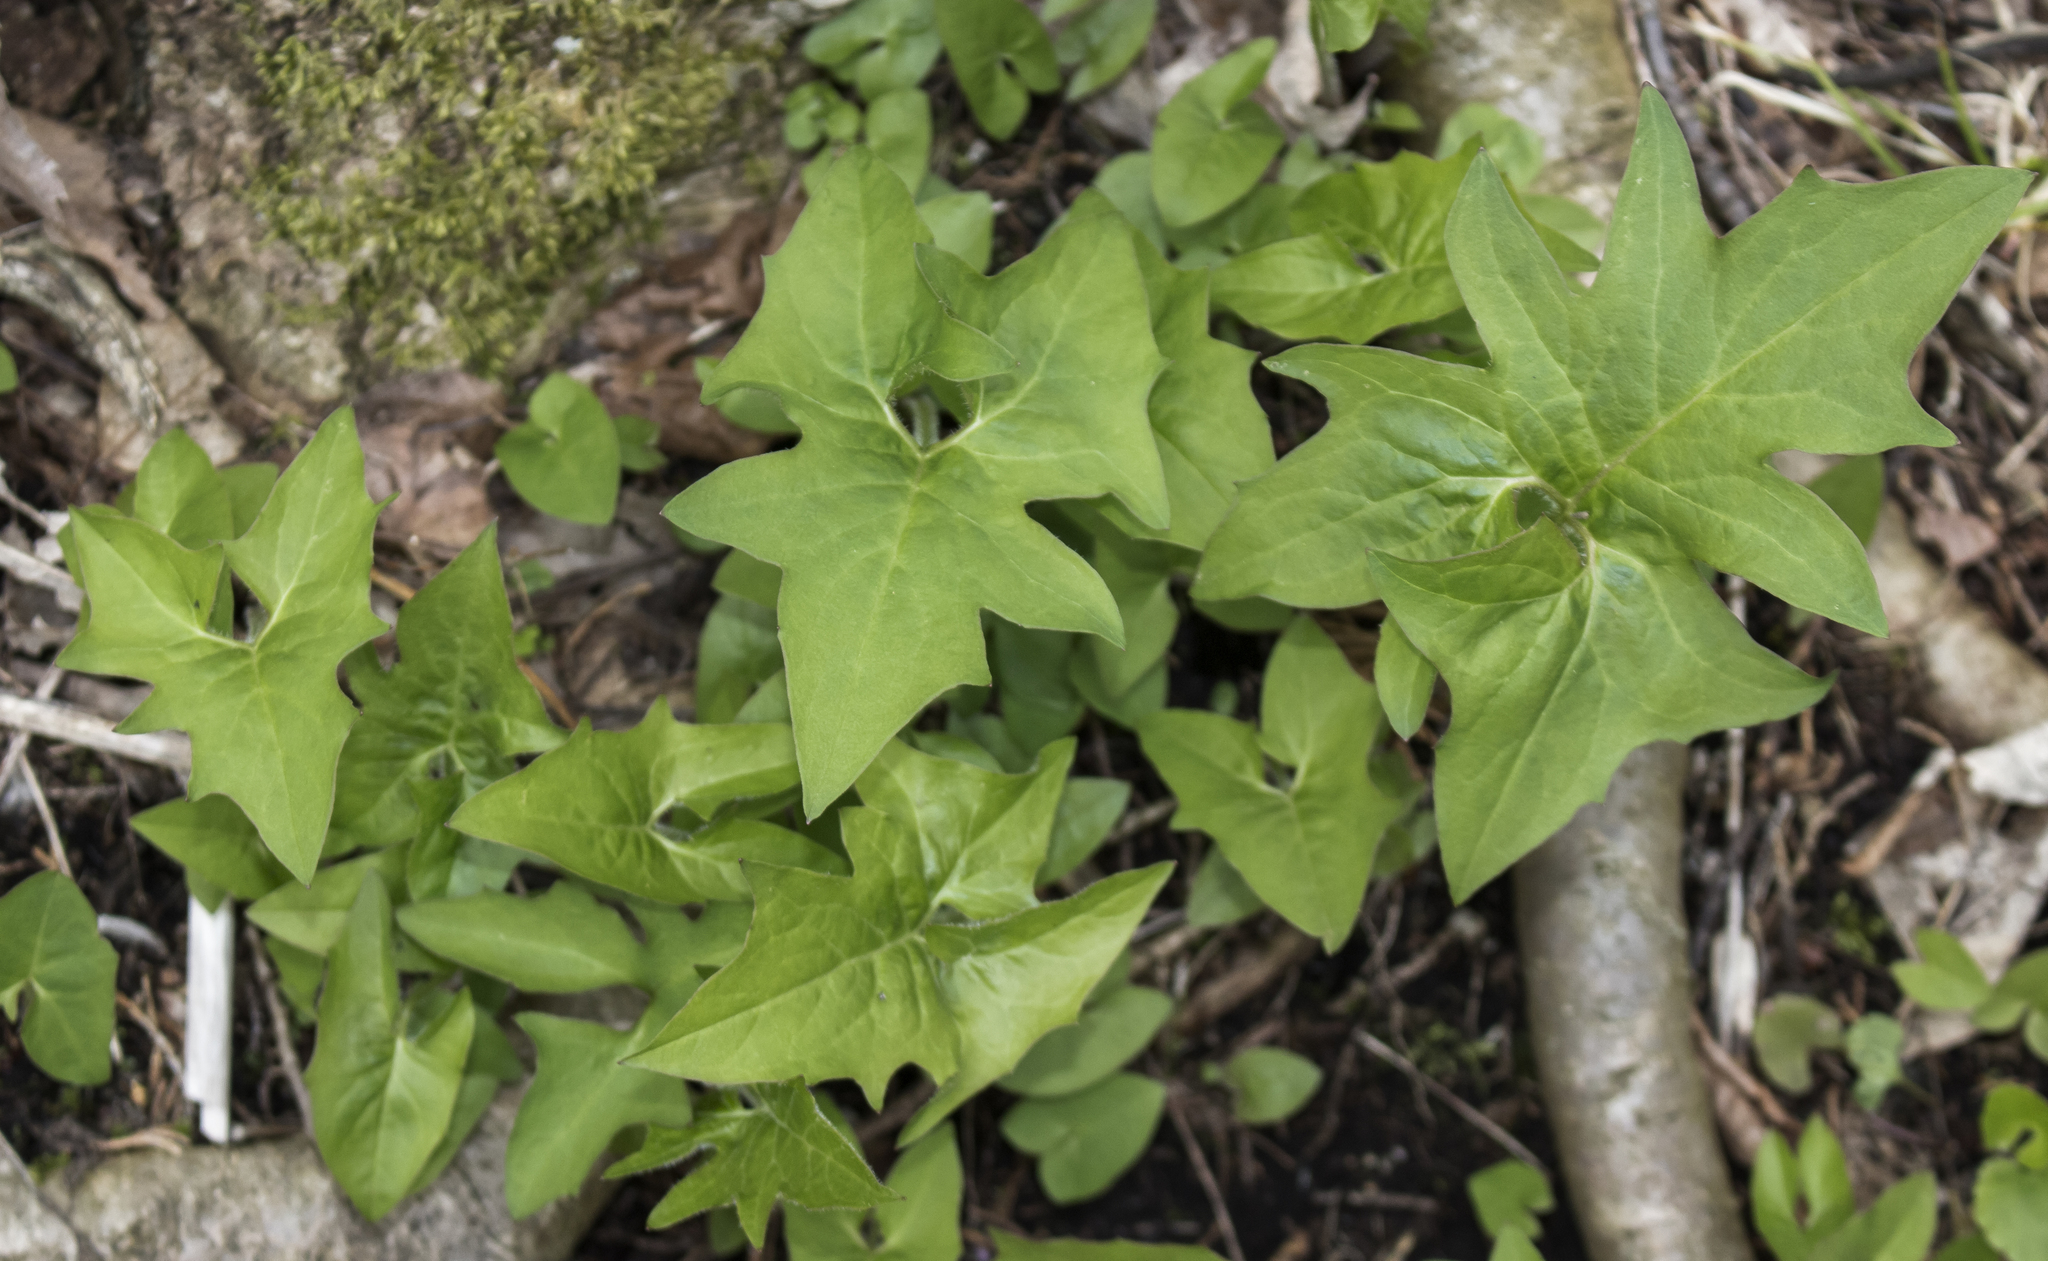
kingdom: Plantae
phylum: Tracheophyta
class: Magnoliopsida
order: Asterales
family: Asteraceae
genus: Nabalus
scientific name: Nabalus albus
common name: White rattlesnakeroot
